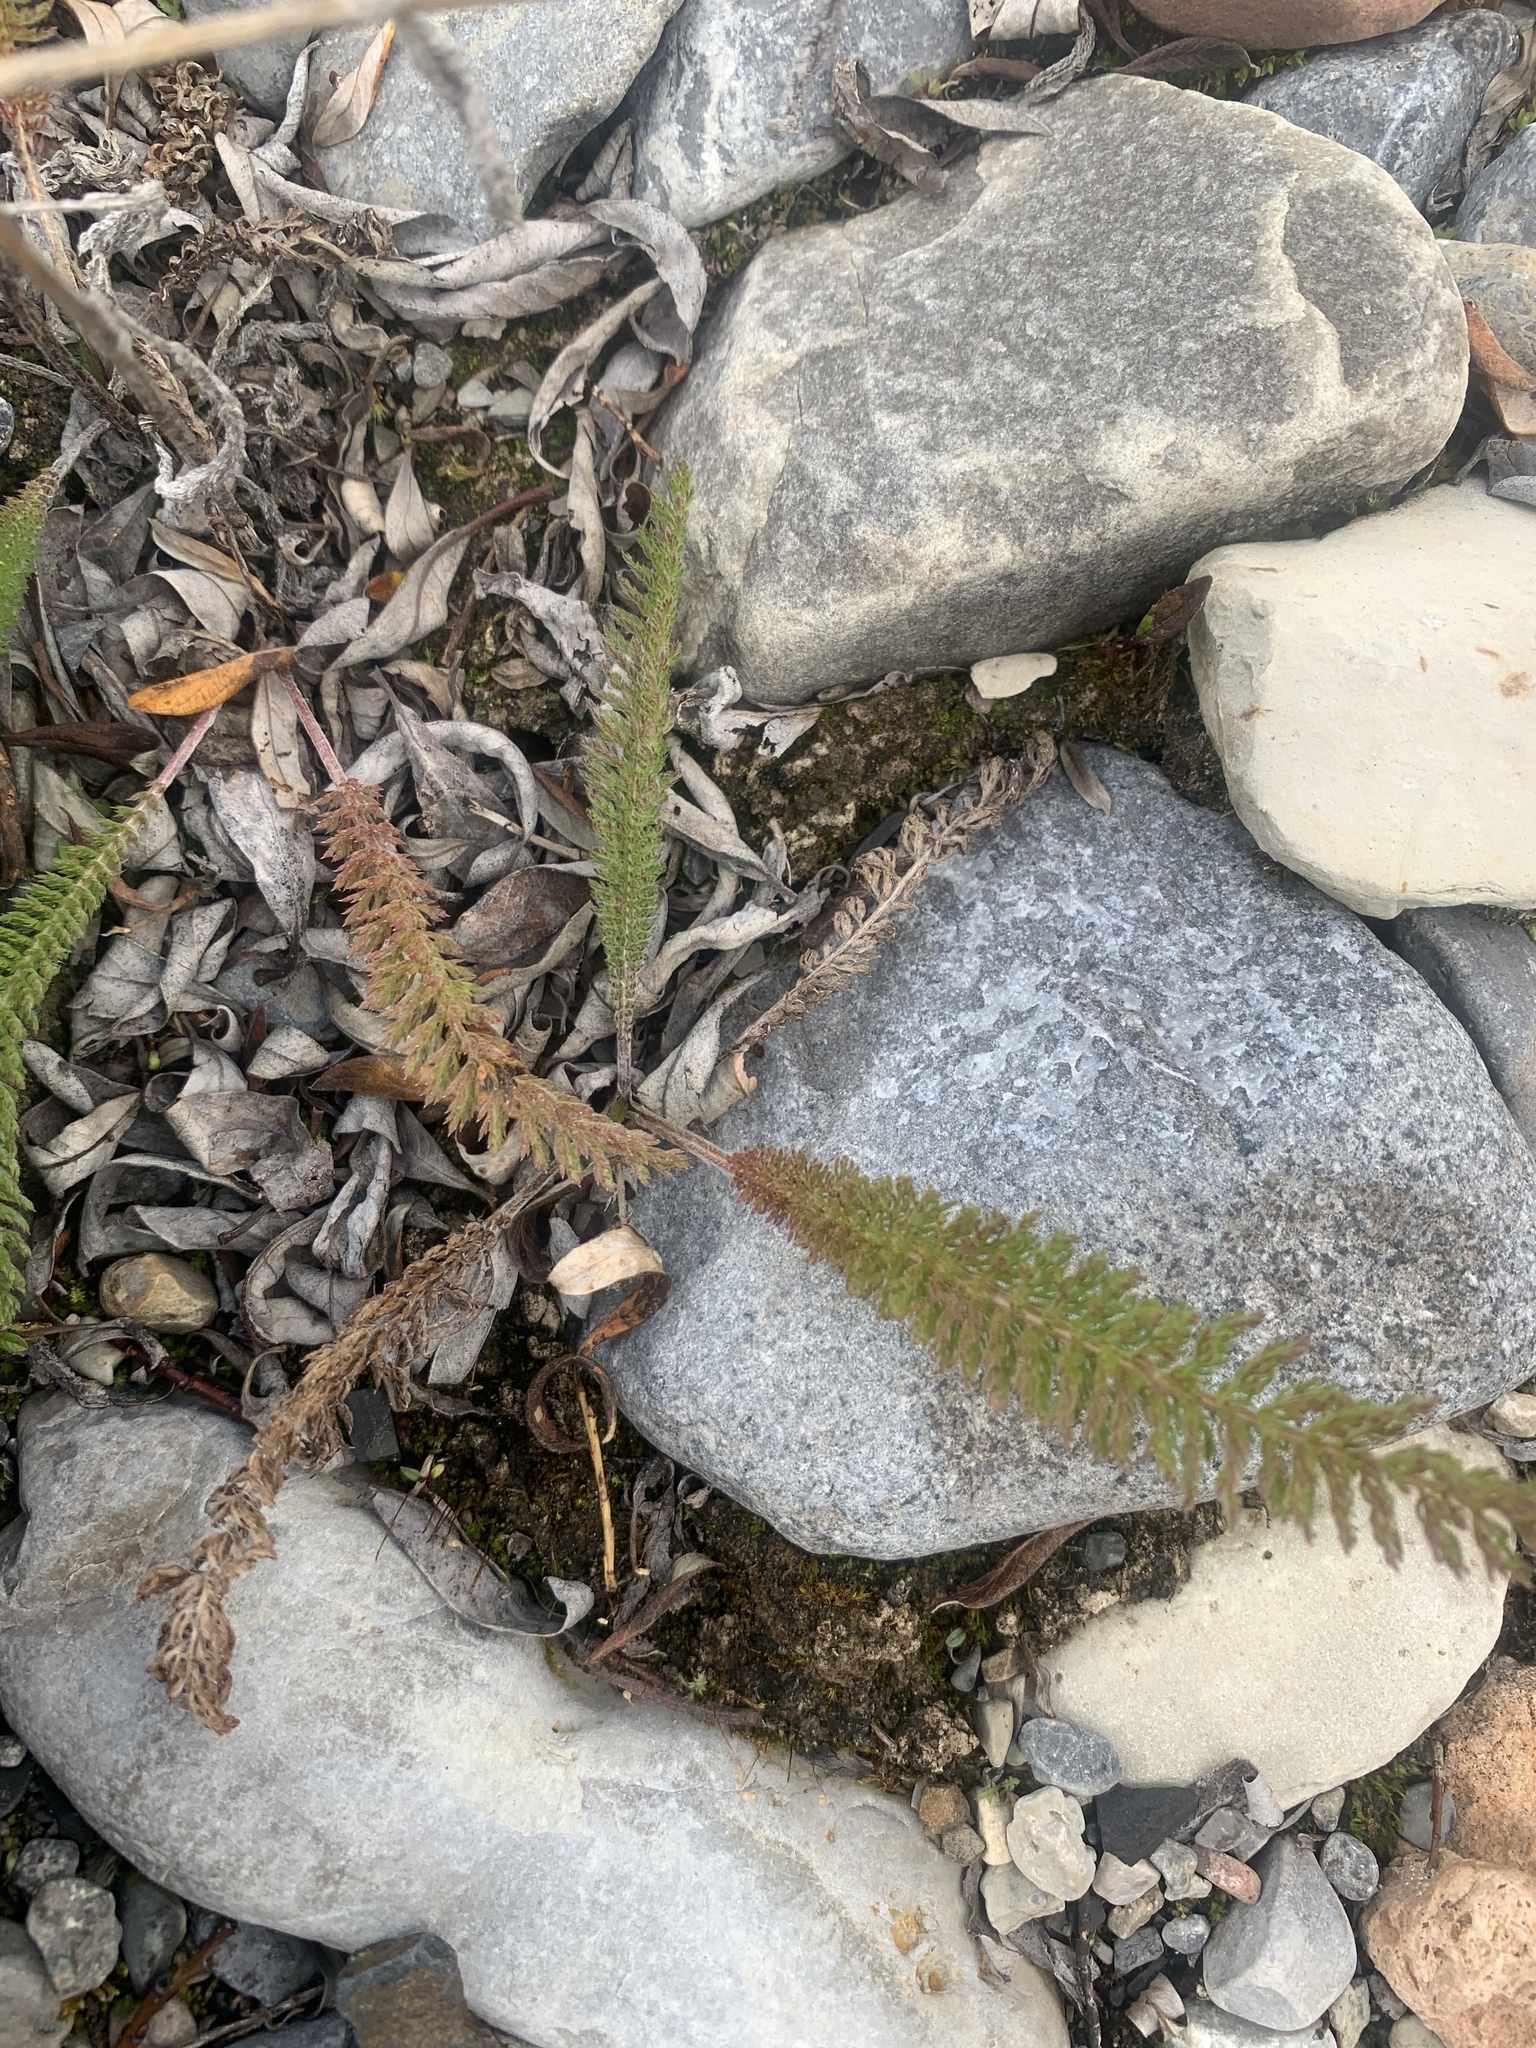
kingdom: Plantae
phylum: Tracheophyta
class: Magnoliopsida
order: Asterales
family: Asteraceae
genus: Achillea
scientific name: Achillea millefolium
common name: Yarrow
